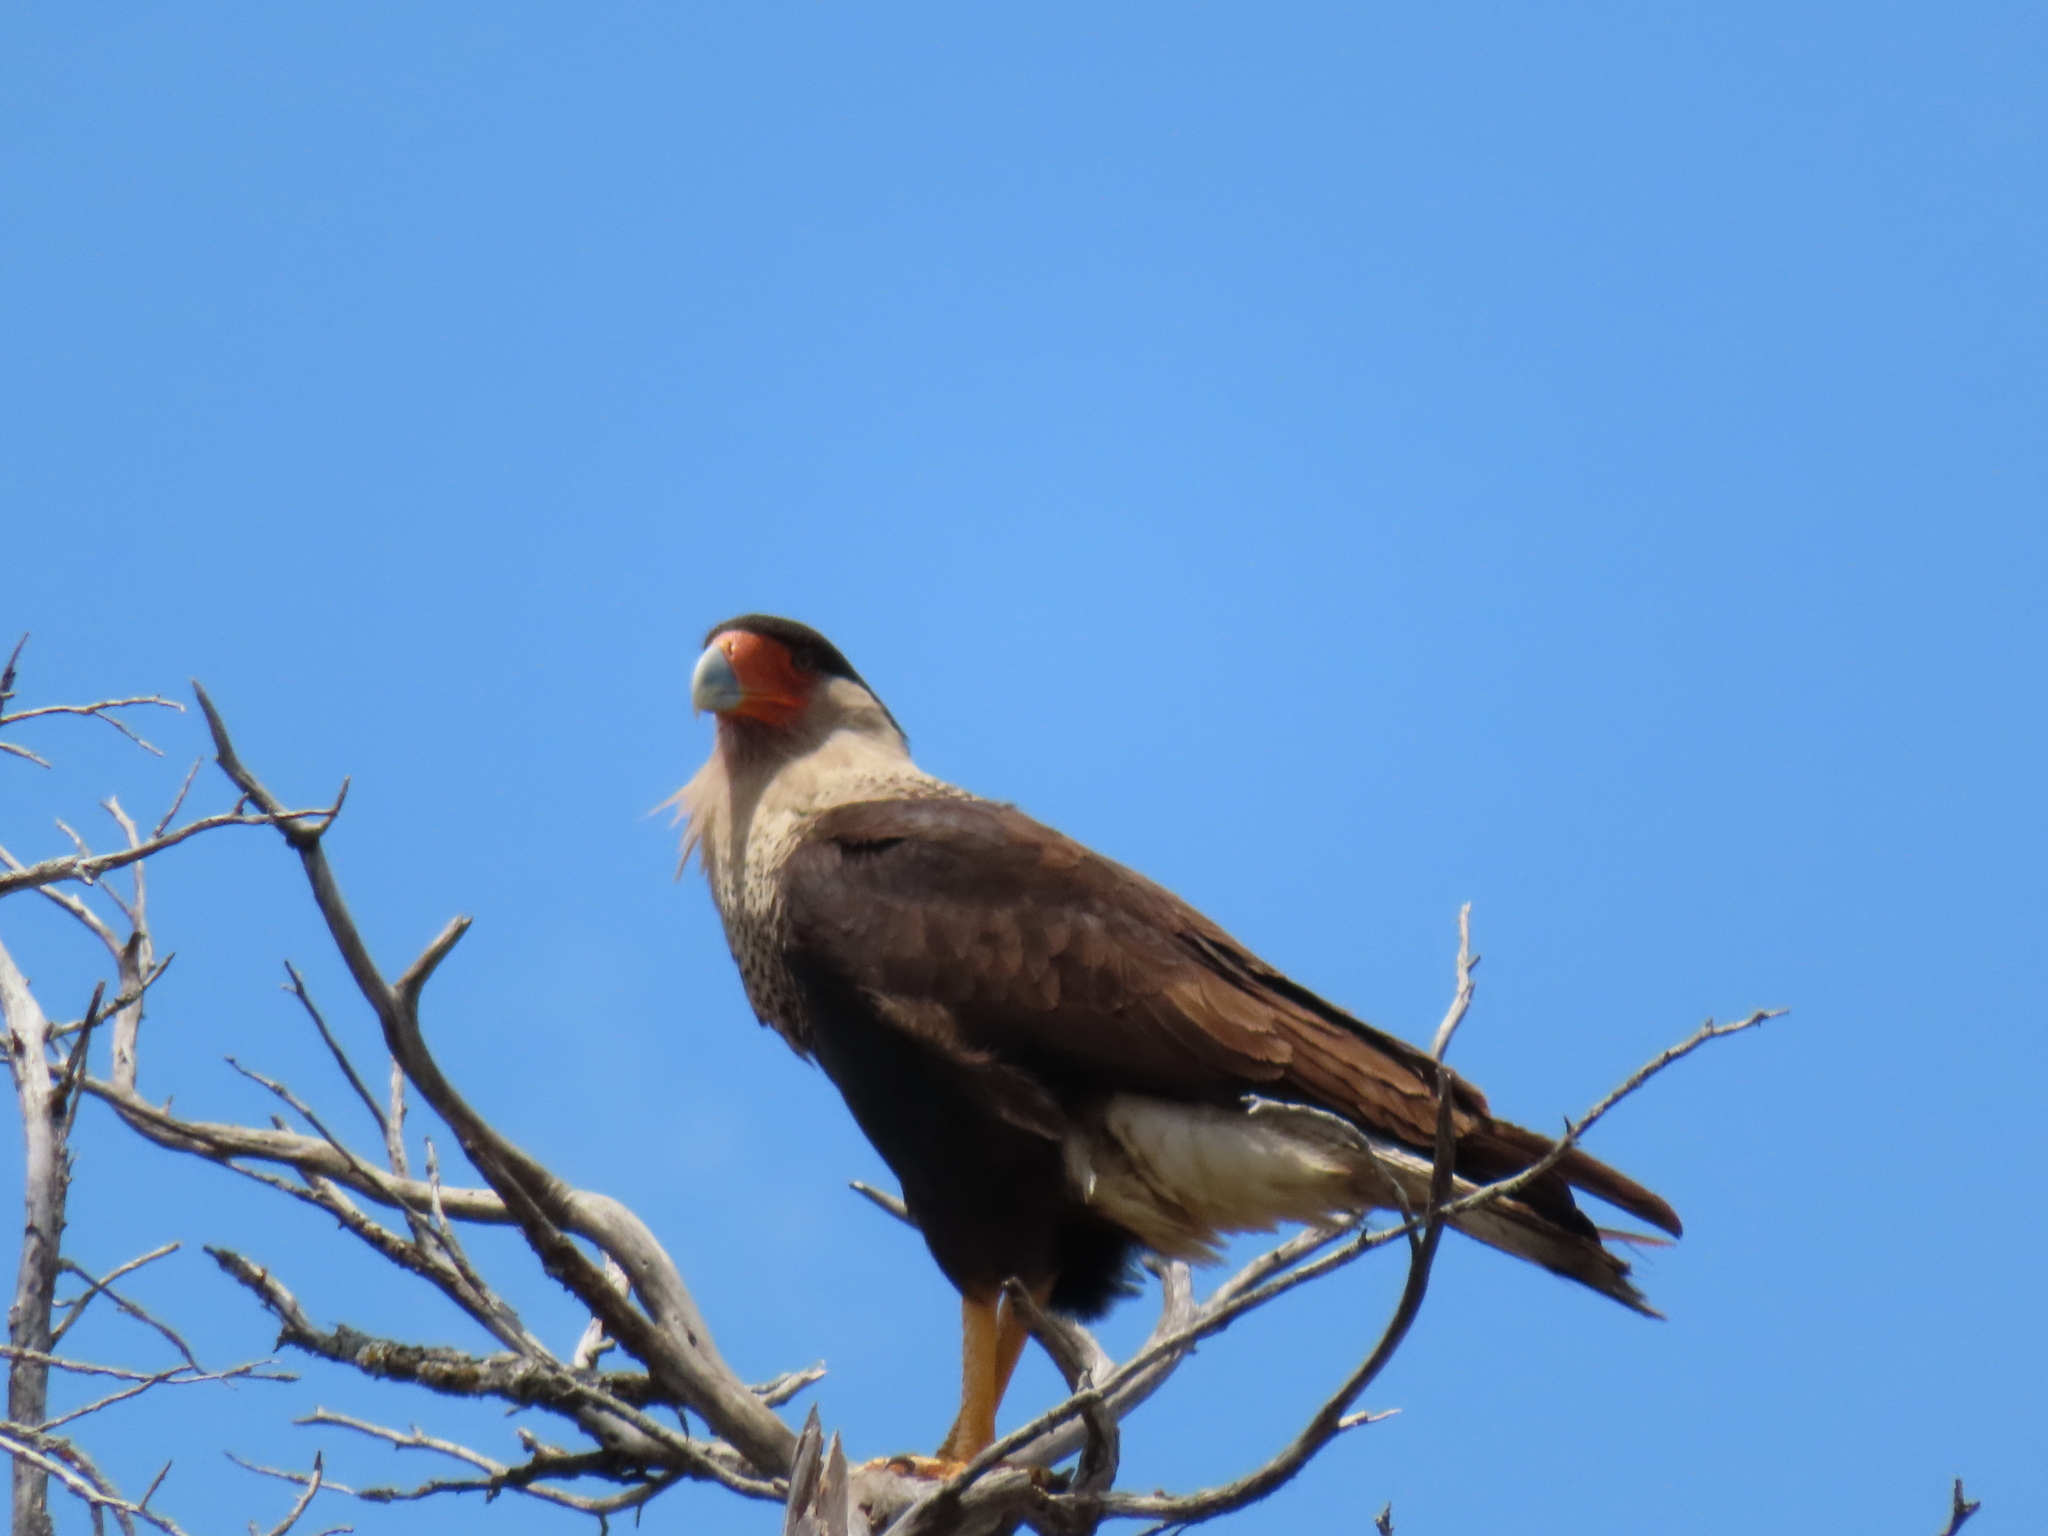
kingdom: Animalia
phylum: Chordata
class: Aves
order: Falconiformes
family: Falconidae
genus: Caracara
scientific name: Caracara plancus
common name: Southern caracara
